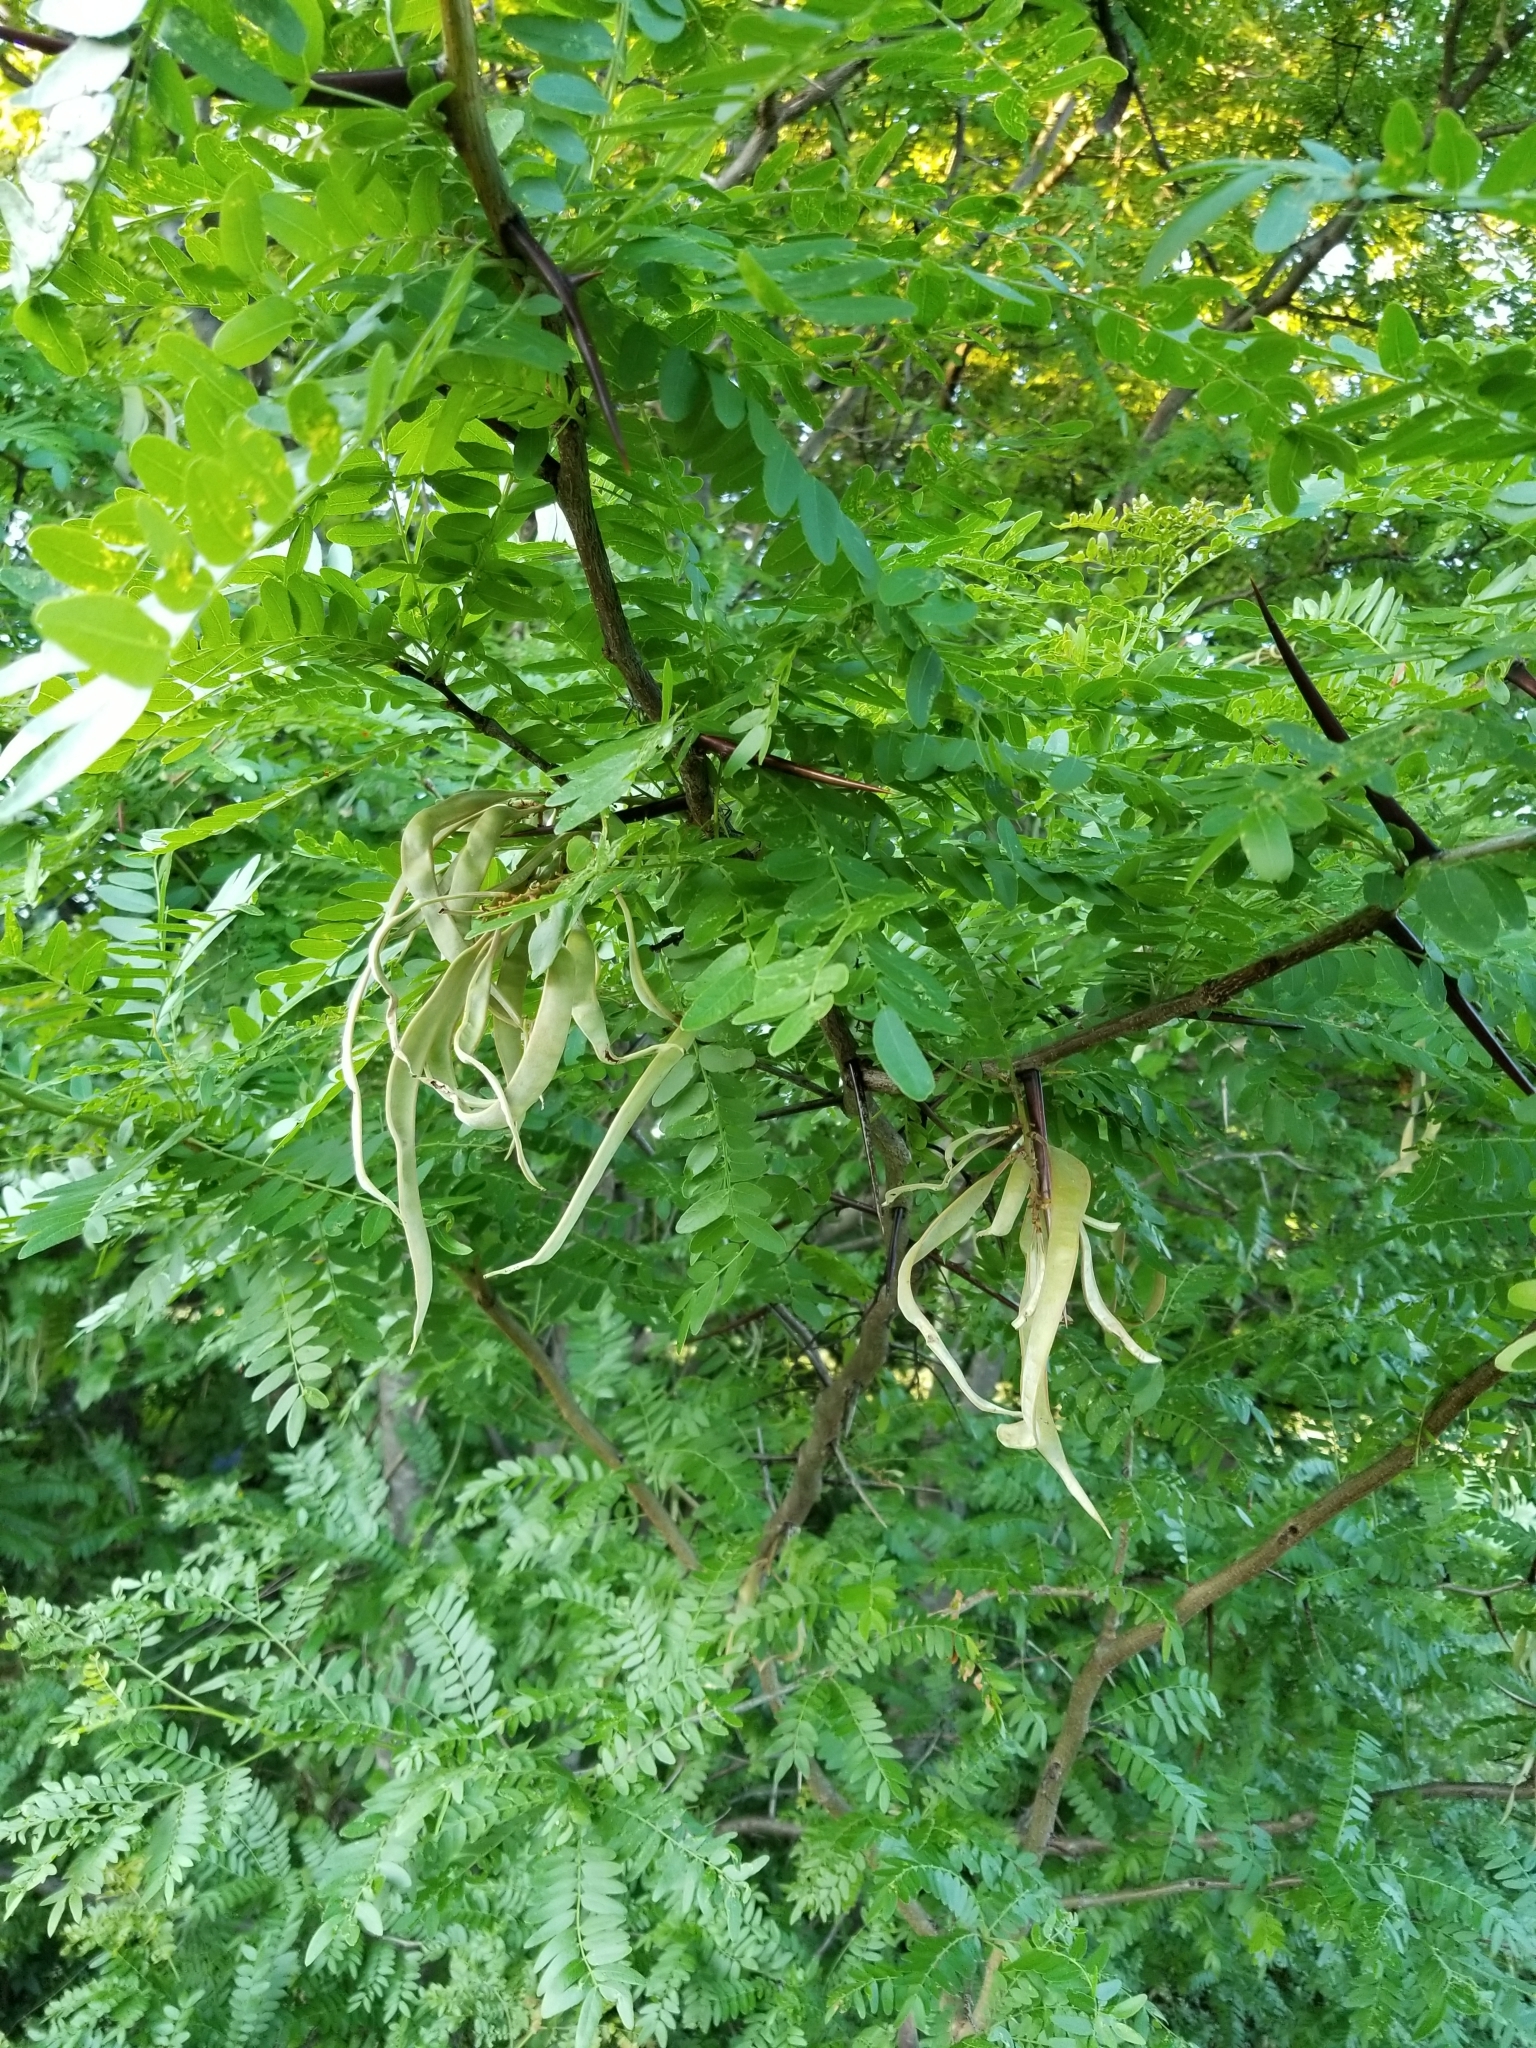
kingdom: Plantae
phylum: Tracheophyta
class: Magnoliopsida
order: Fabales
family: Fabaceae
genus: Gleditsia
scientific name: Gleditsia triacanthos
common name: Common honeylocust
